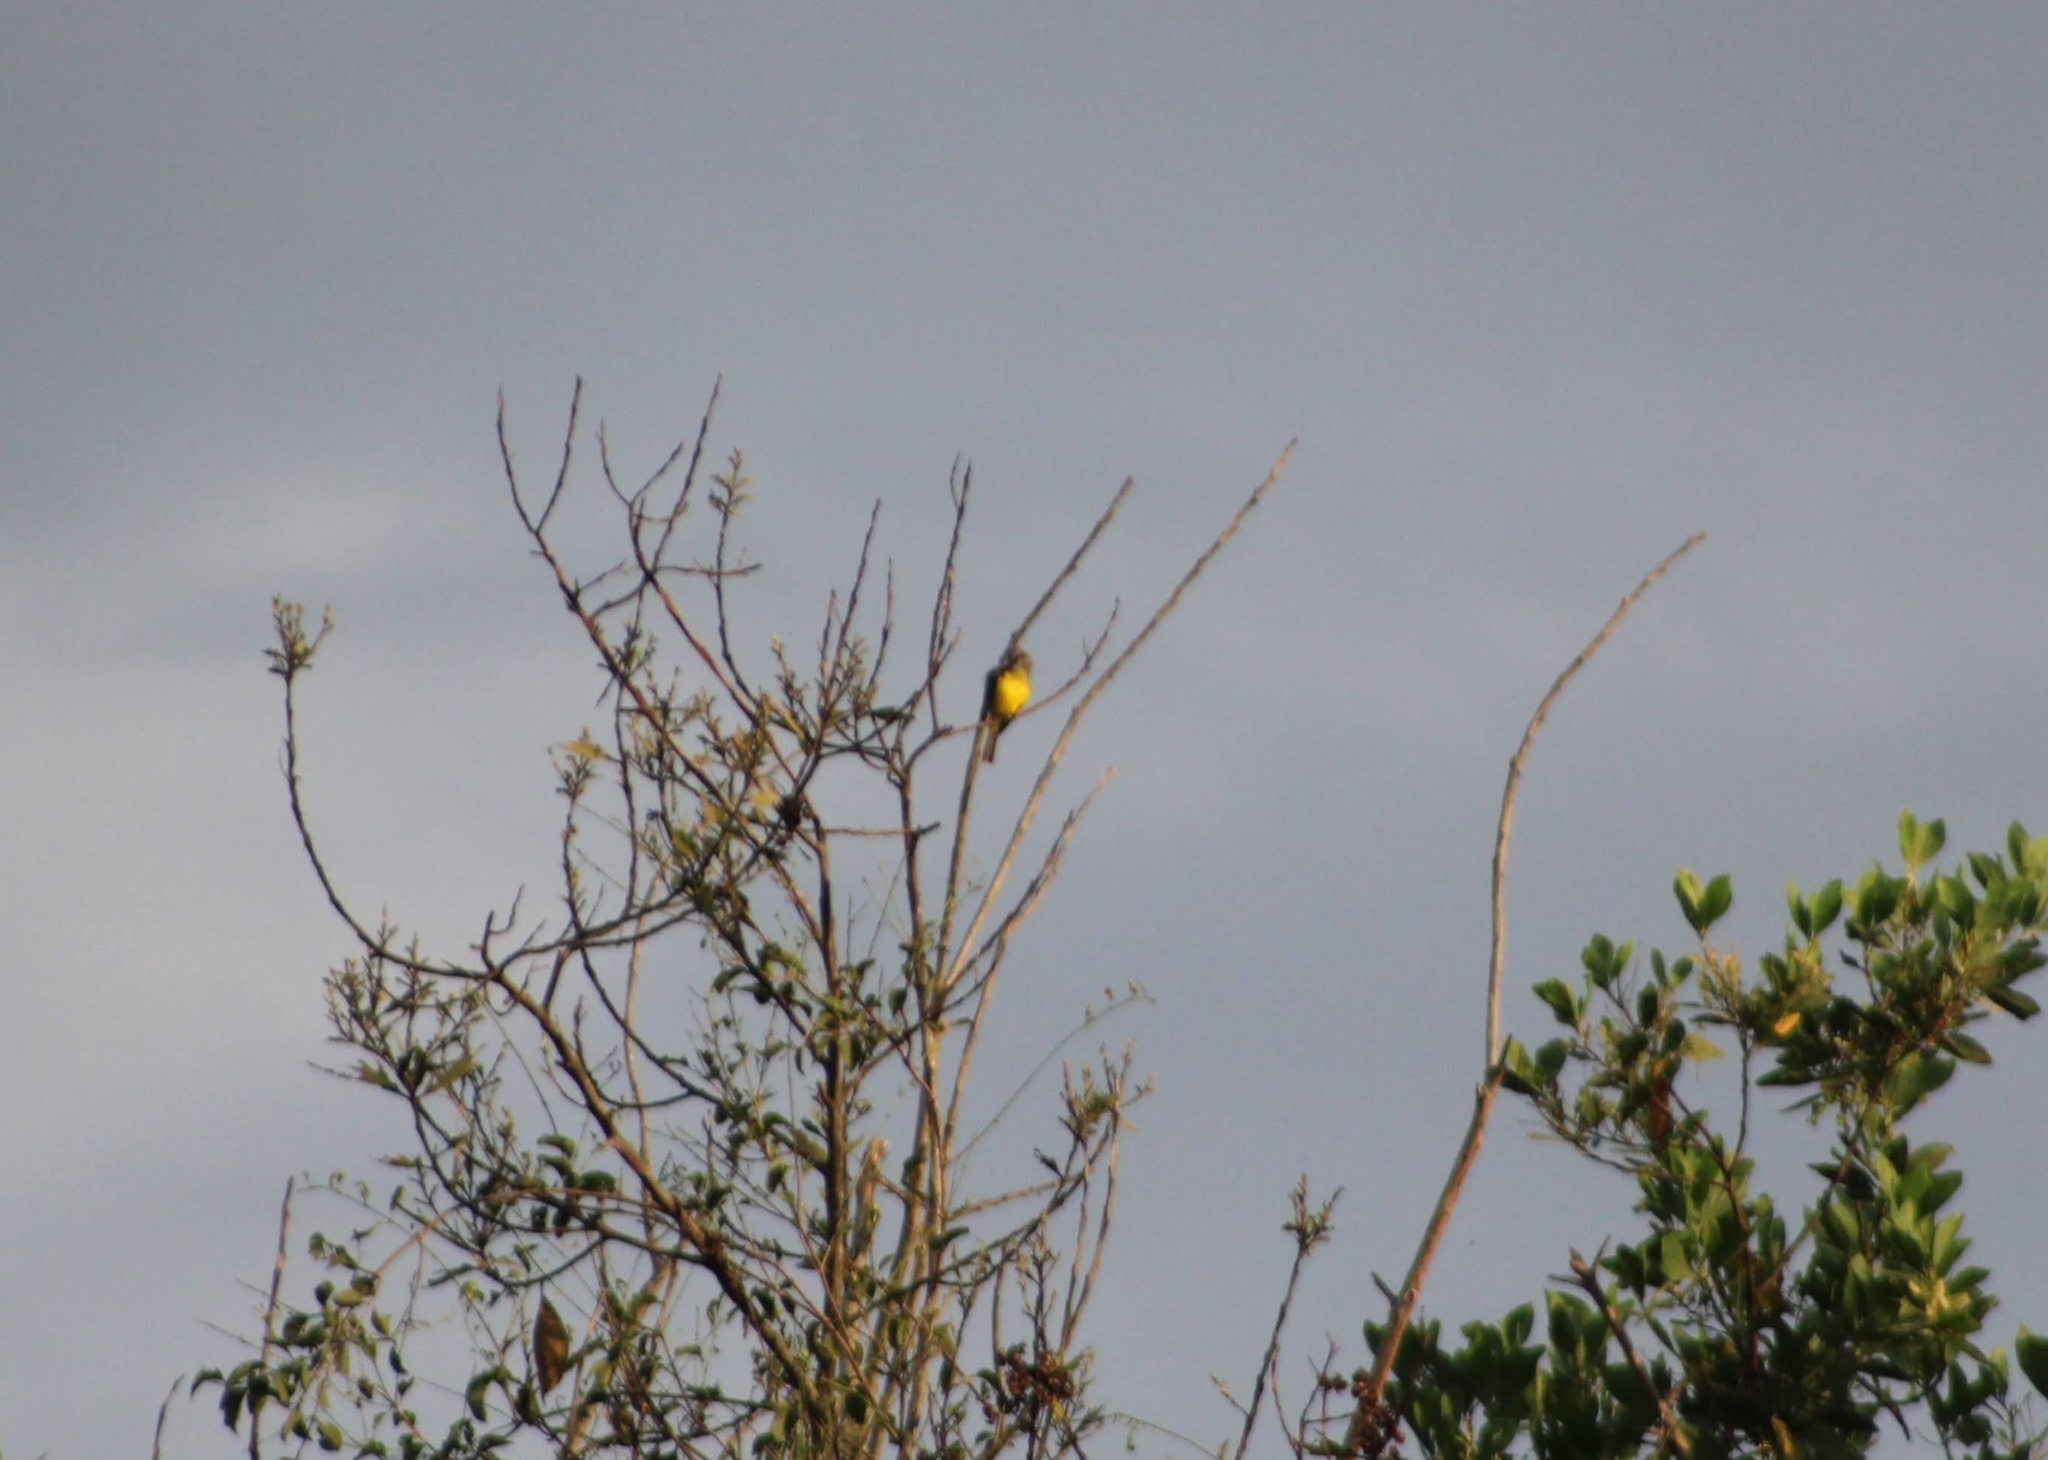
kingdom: Animalia
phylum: Chordata
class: Aves
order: Passeriformes
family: Tyrannidae
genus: Tyrannus
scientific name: Tyrannus melancholicus
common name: Tropical kingbird
